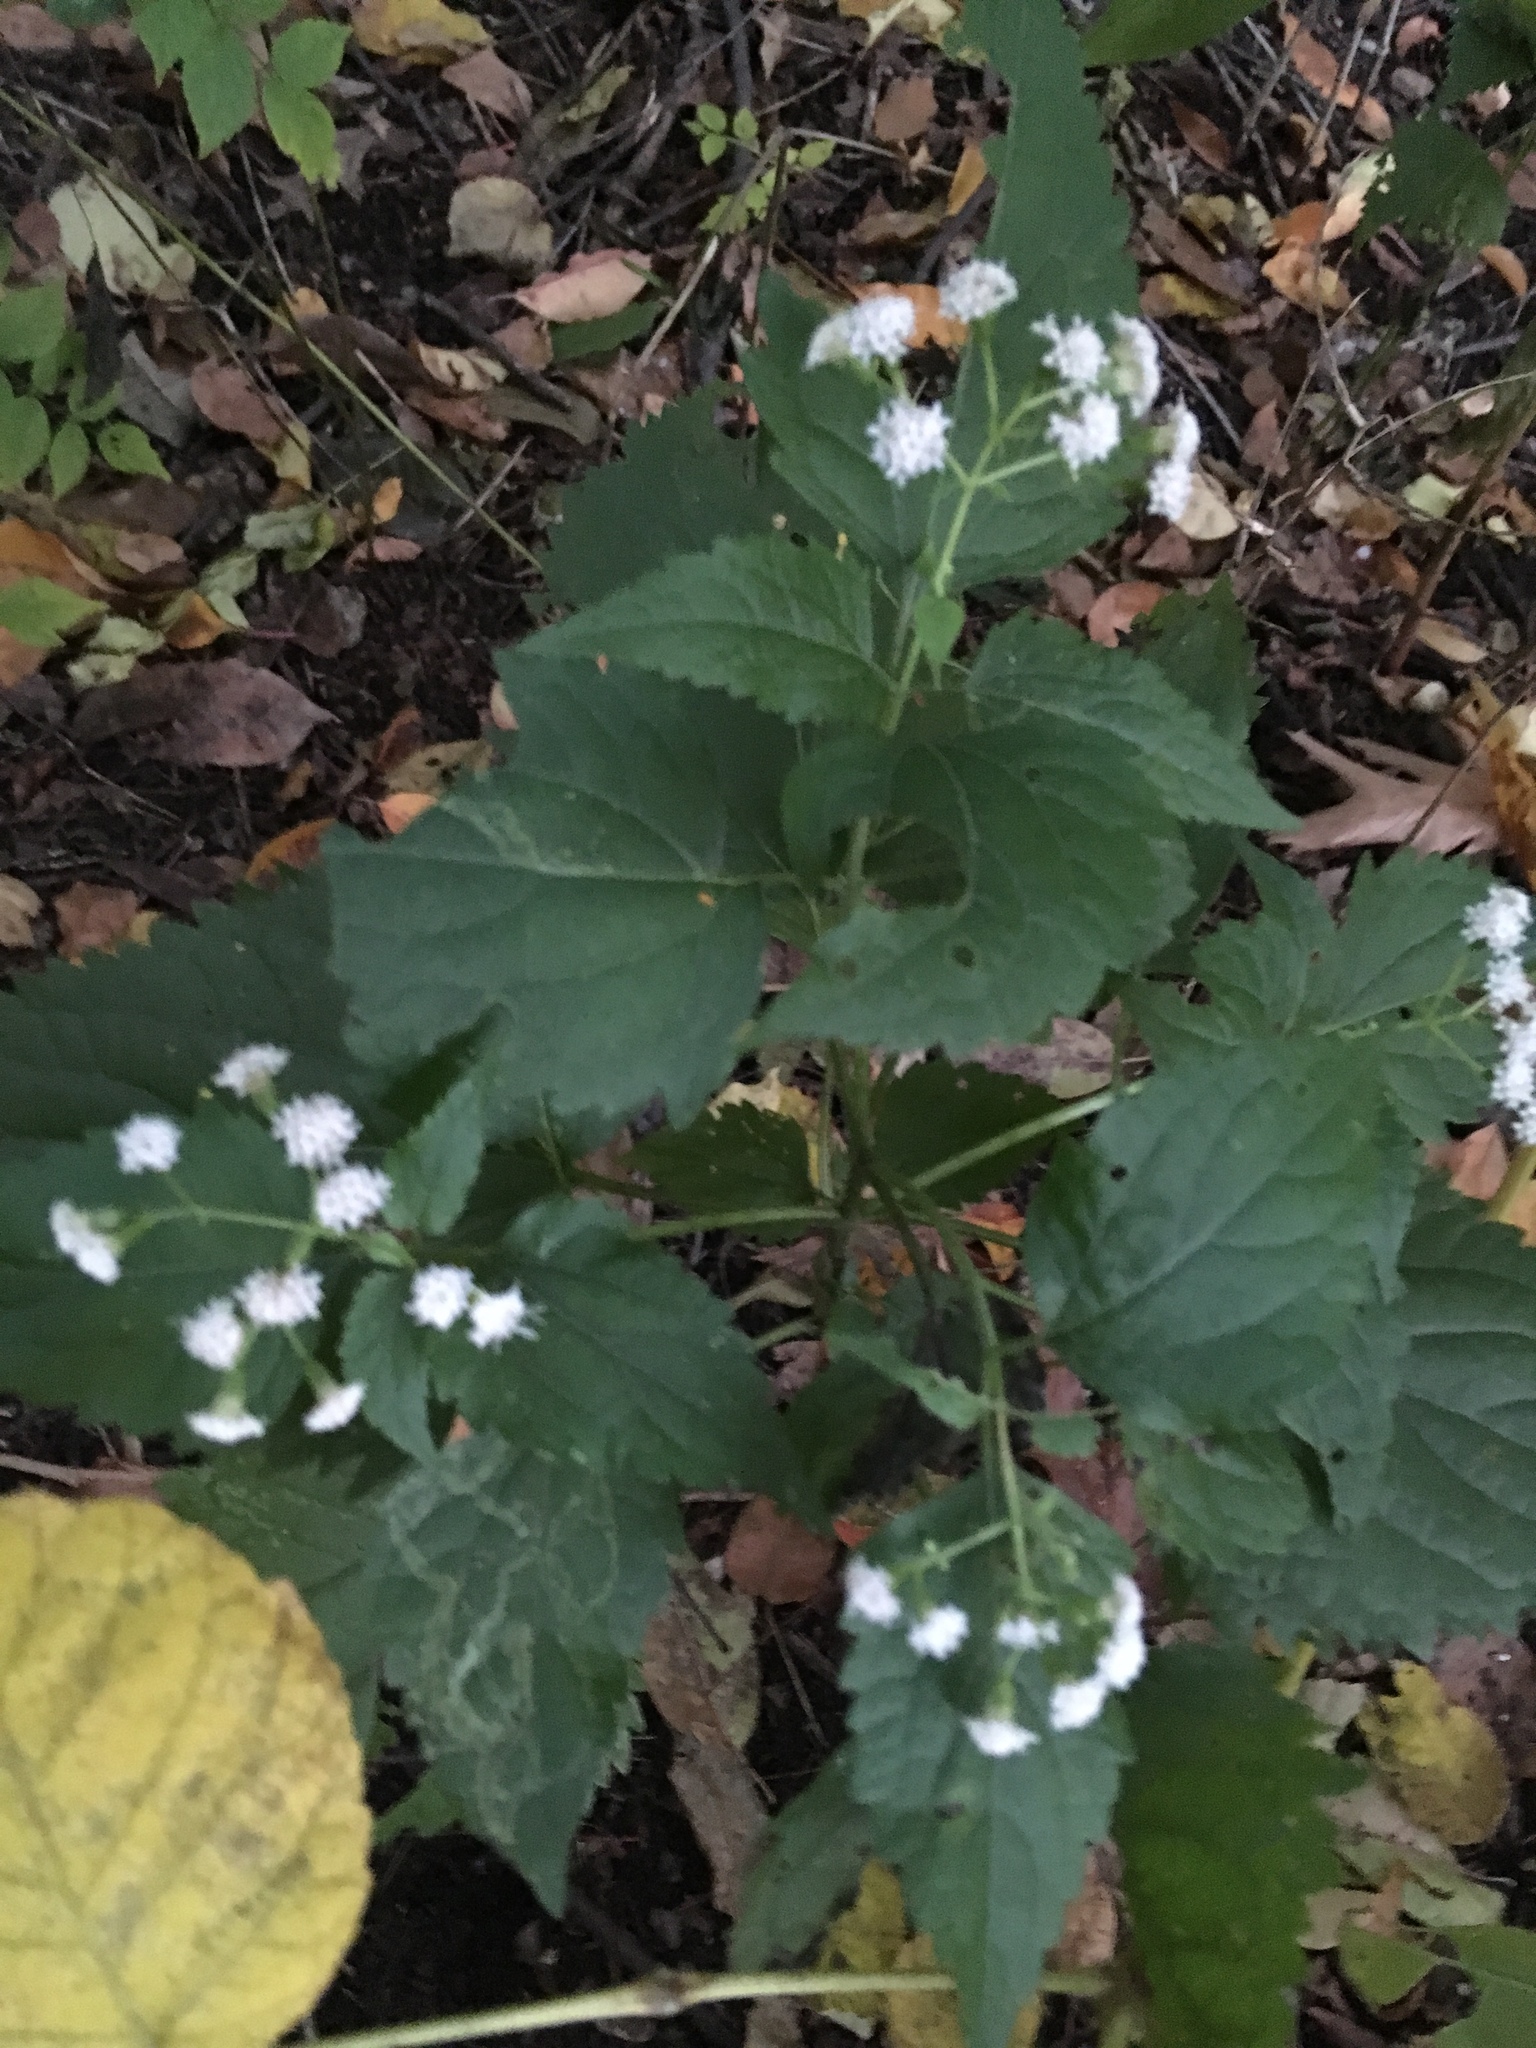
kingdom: Plantae
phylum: Tracheophyta
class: Magnoliopsida
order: Asterales
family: Asteraceae
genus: Ageratina
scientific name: Ageratina altissima
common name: White snakeroot
